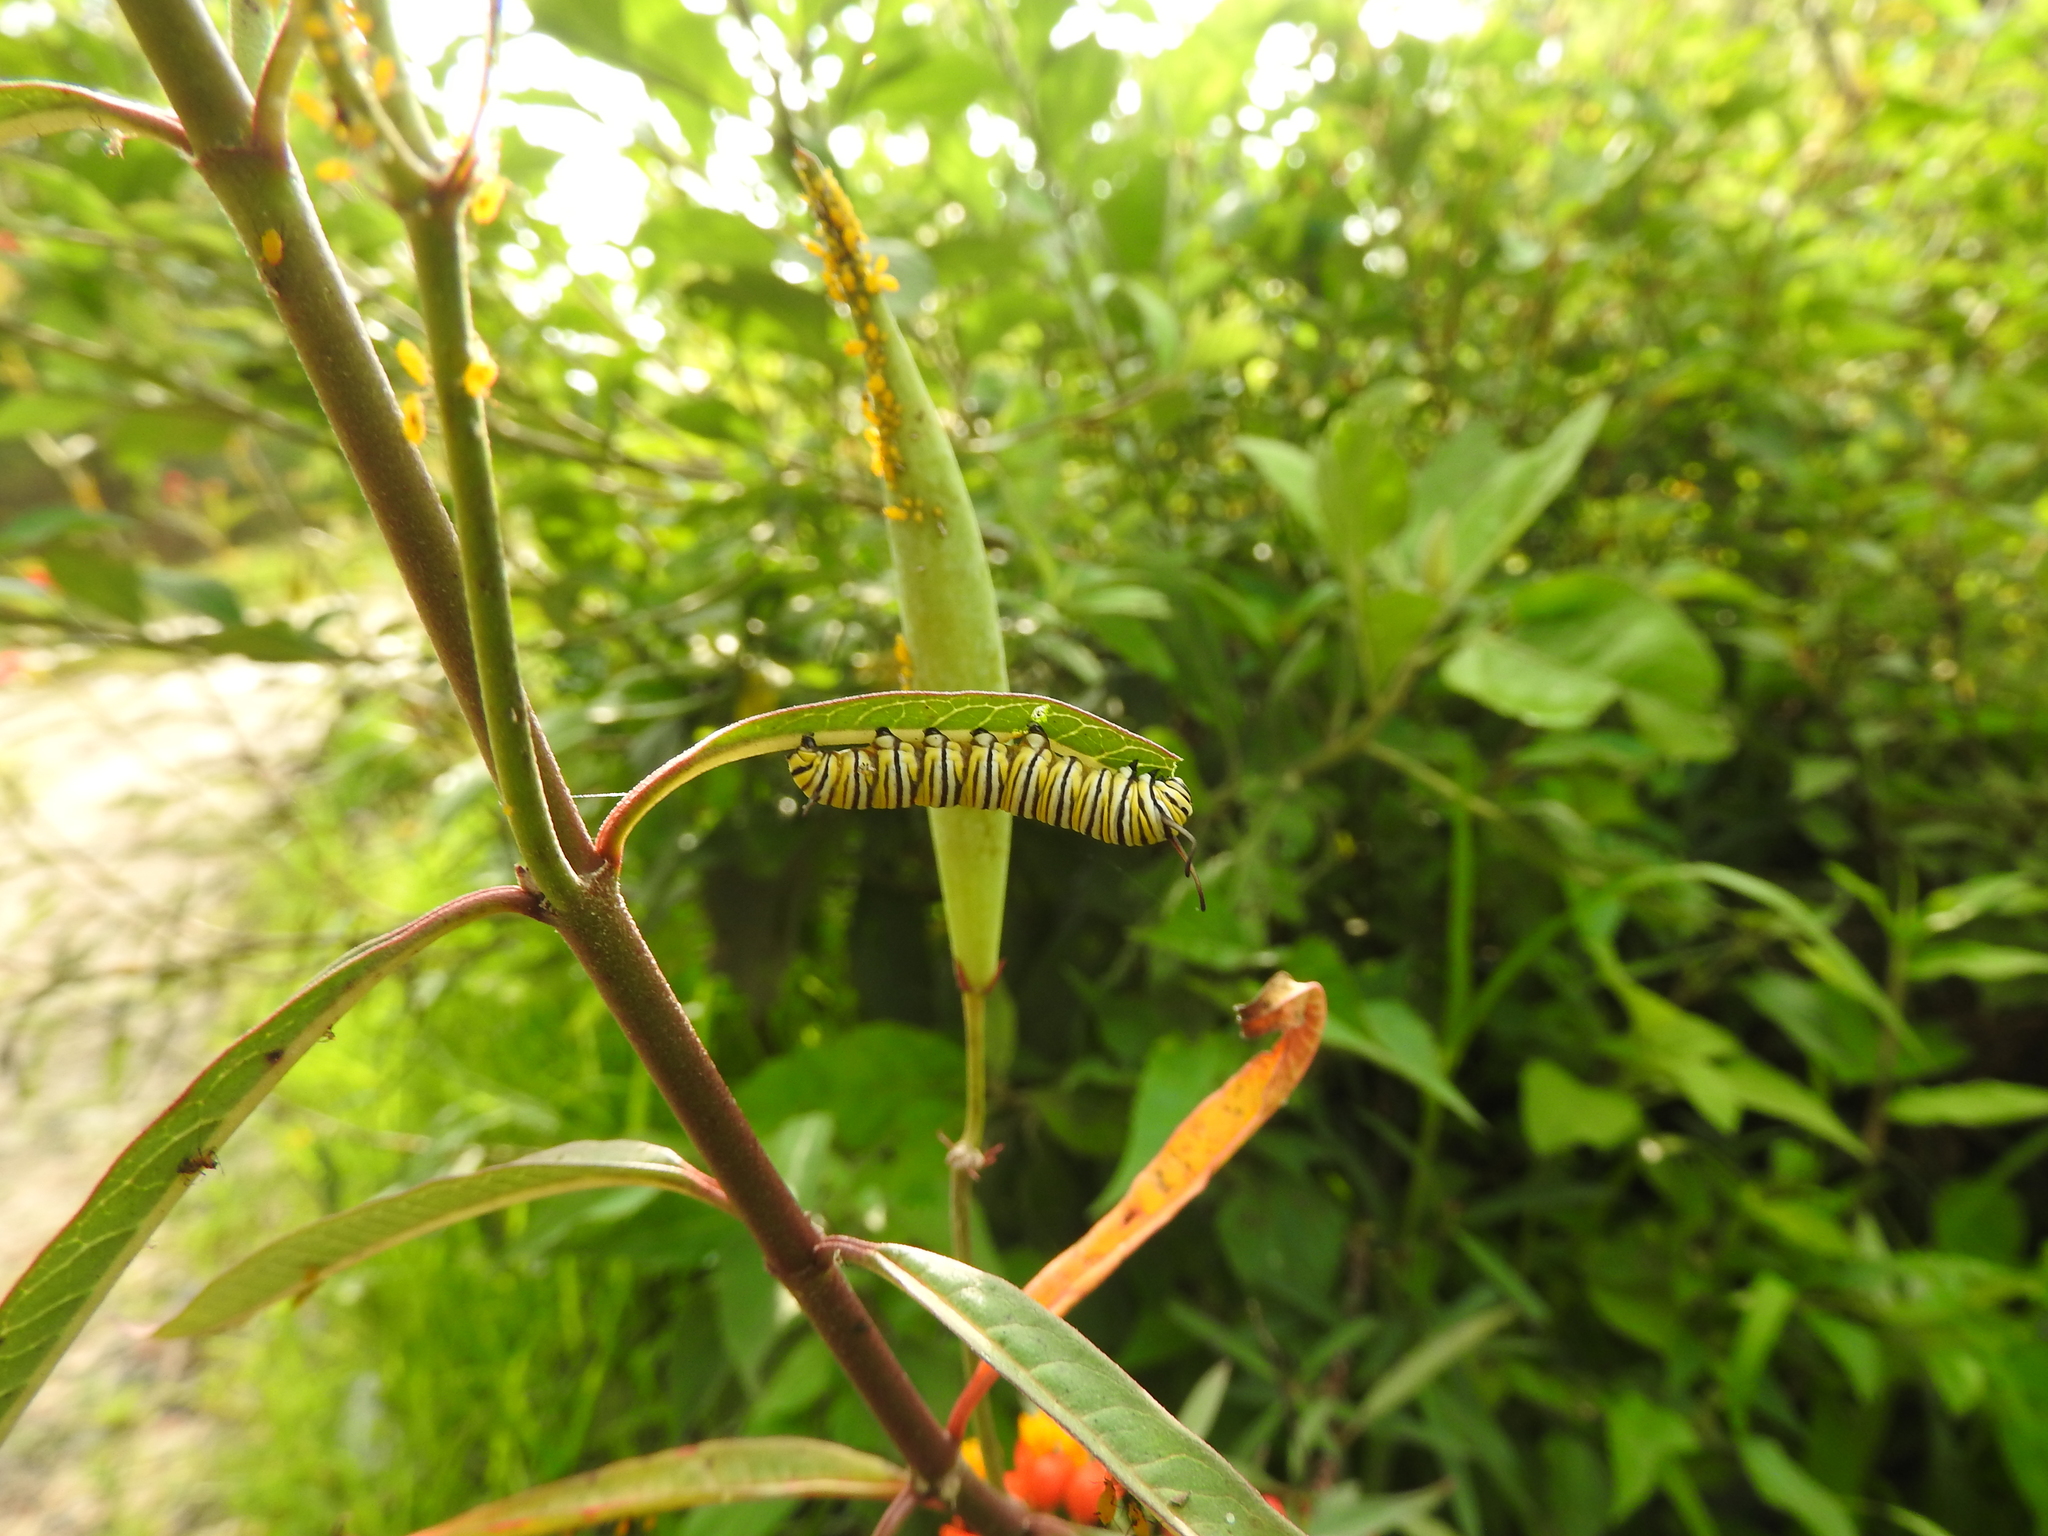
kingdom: Animalia
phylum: Arthropoda
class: Insecta
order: Lepidoptera
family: Nymphalidae
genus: Danaus
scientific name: Danaus plexippus
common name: Monarch
